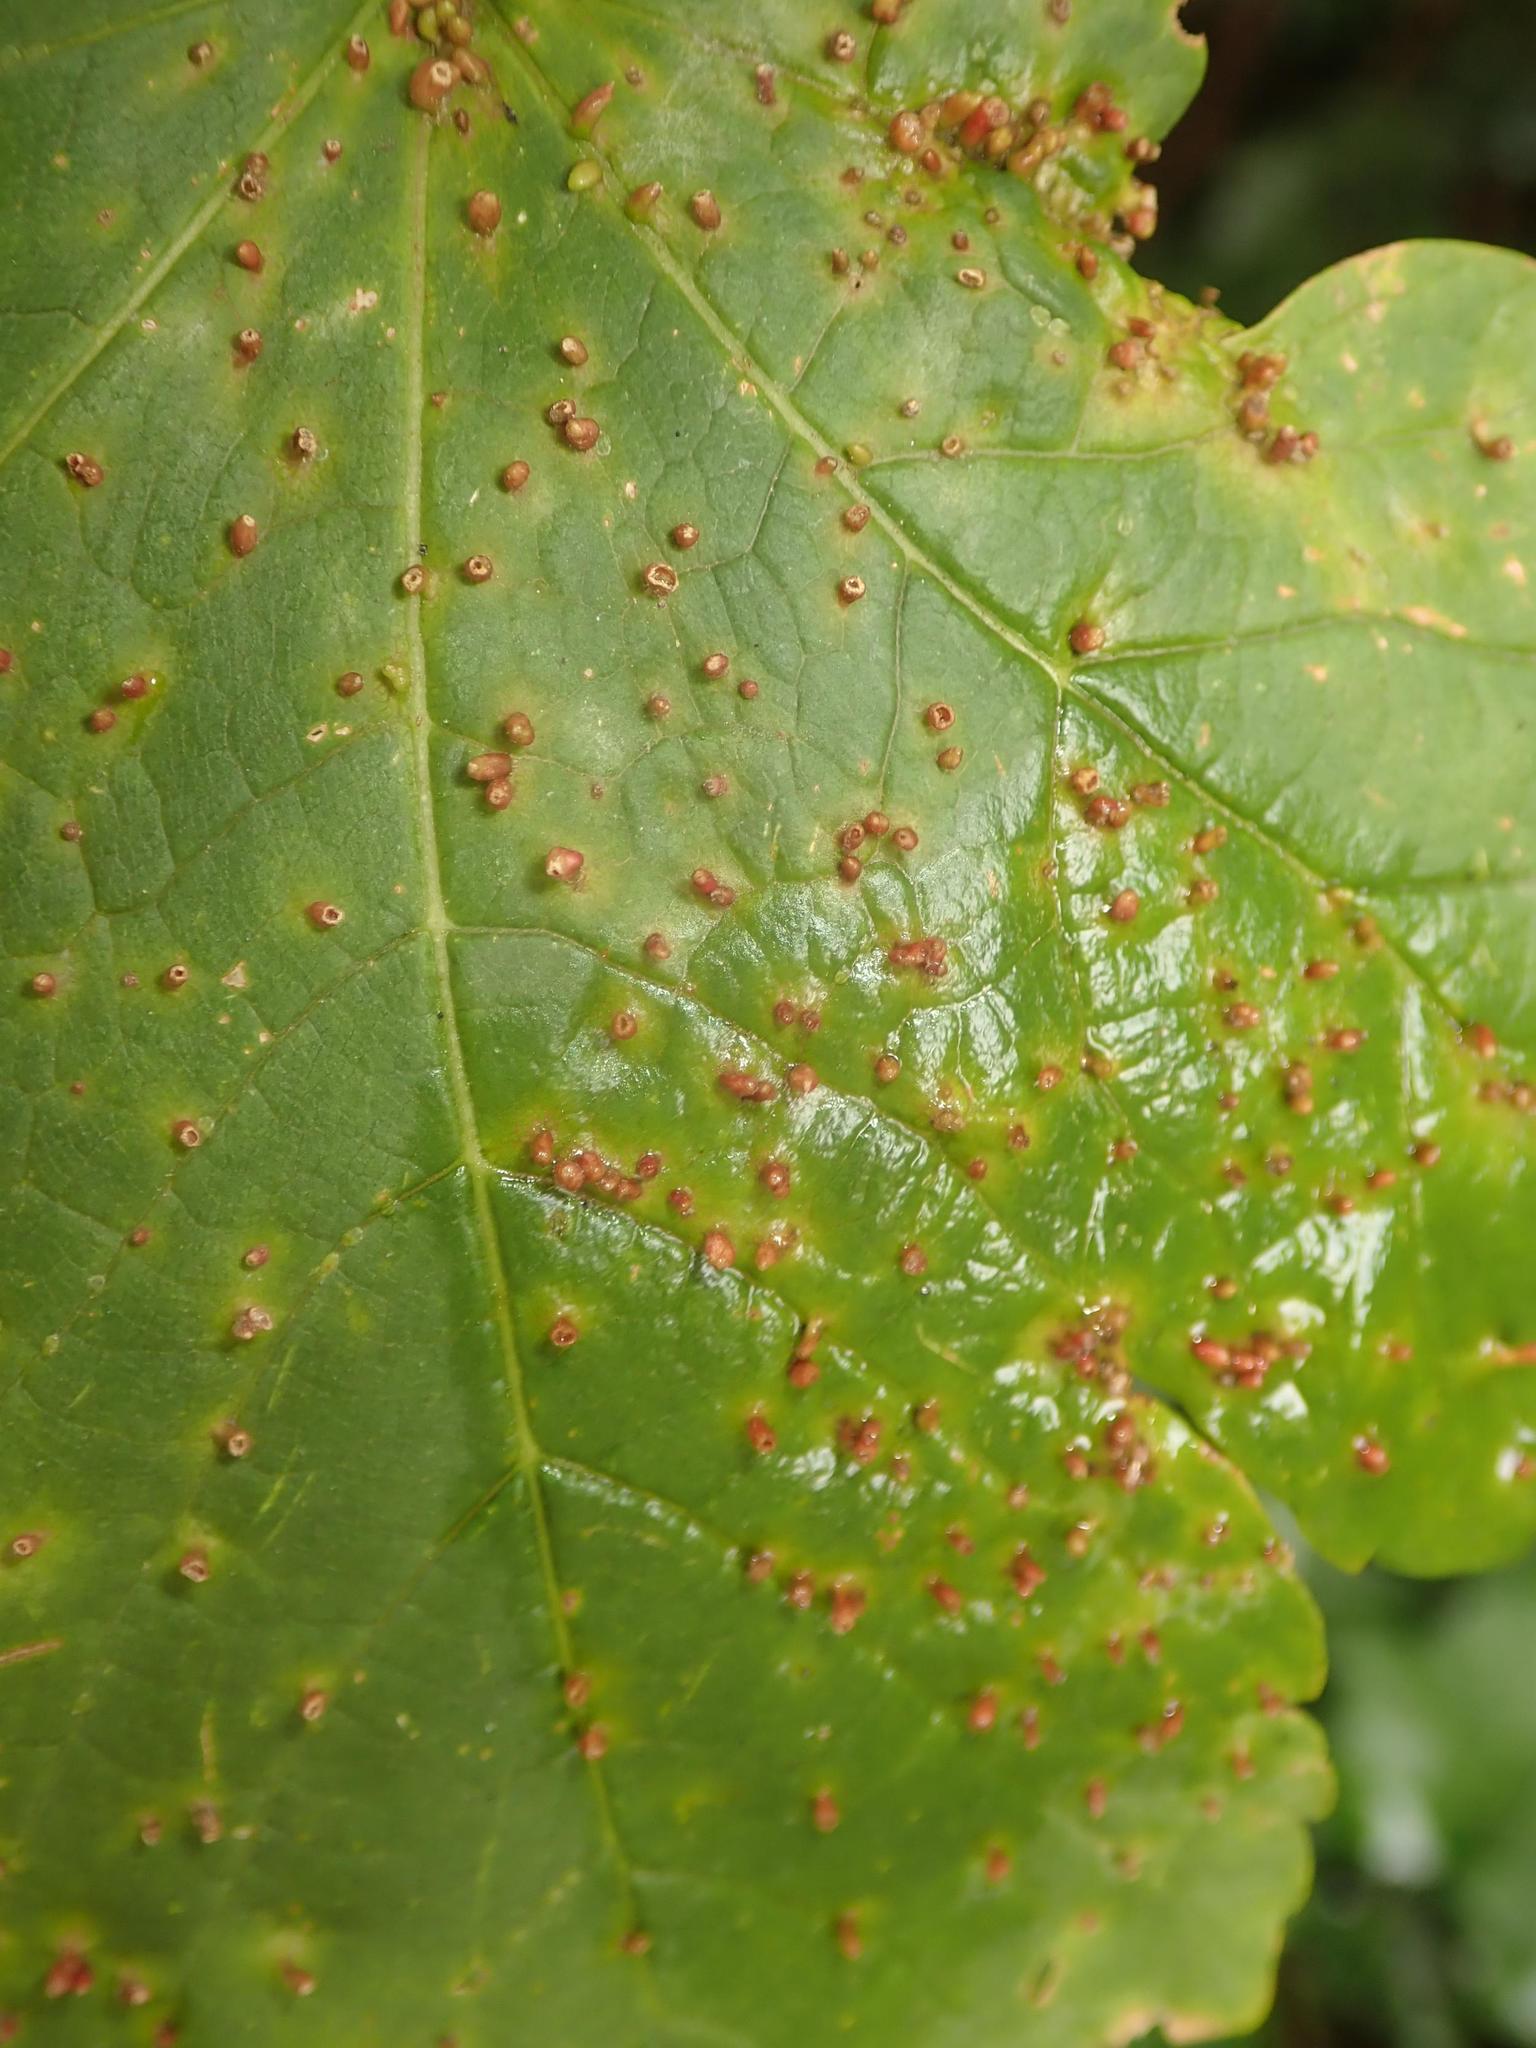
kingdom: Animalia
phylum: Arthropoda
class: Arachnida
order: Trombidiformes
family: Eriophyidae
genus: Aceria
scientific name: Aceria cephaloneus
